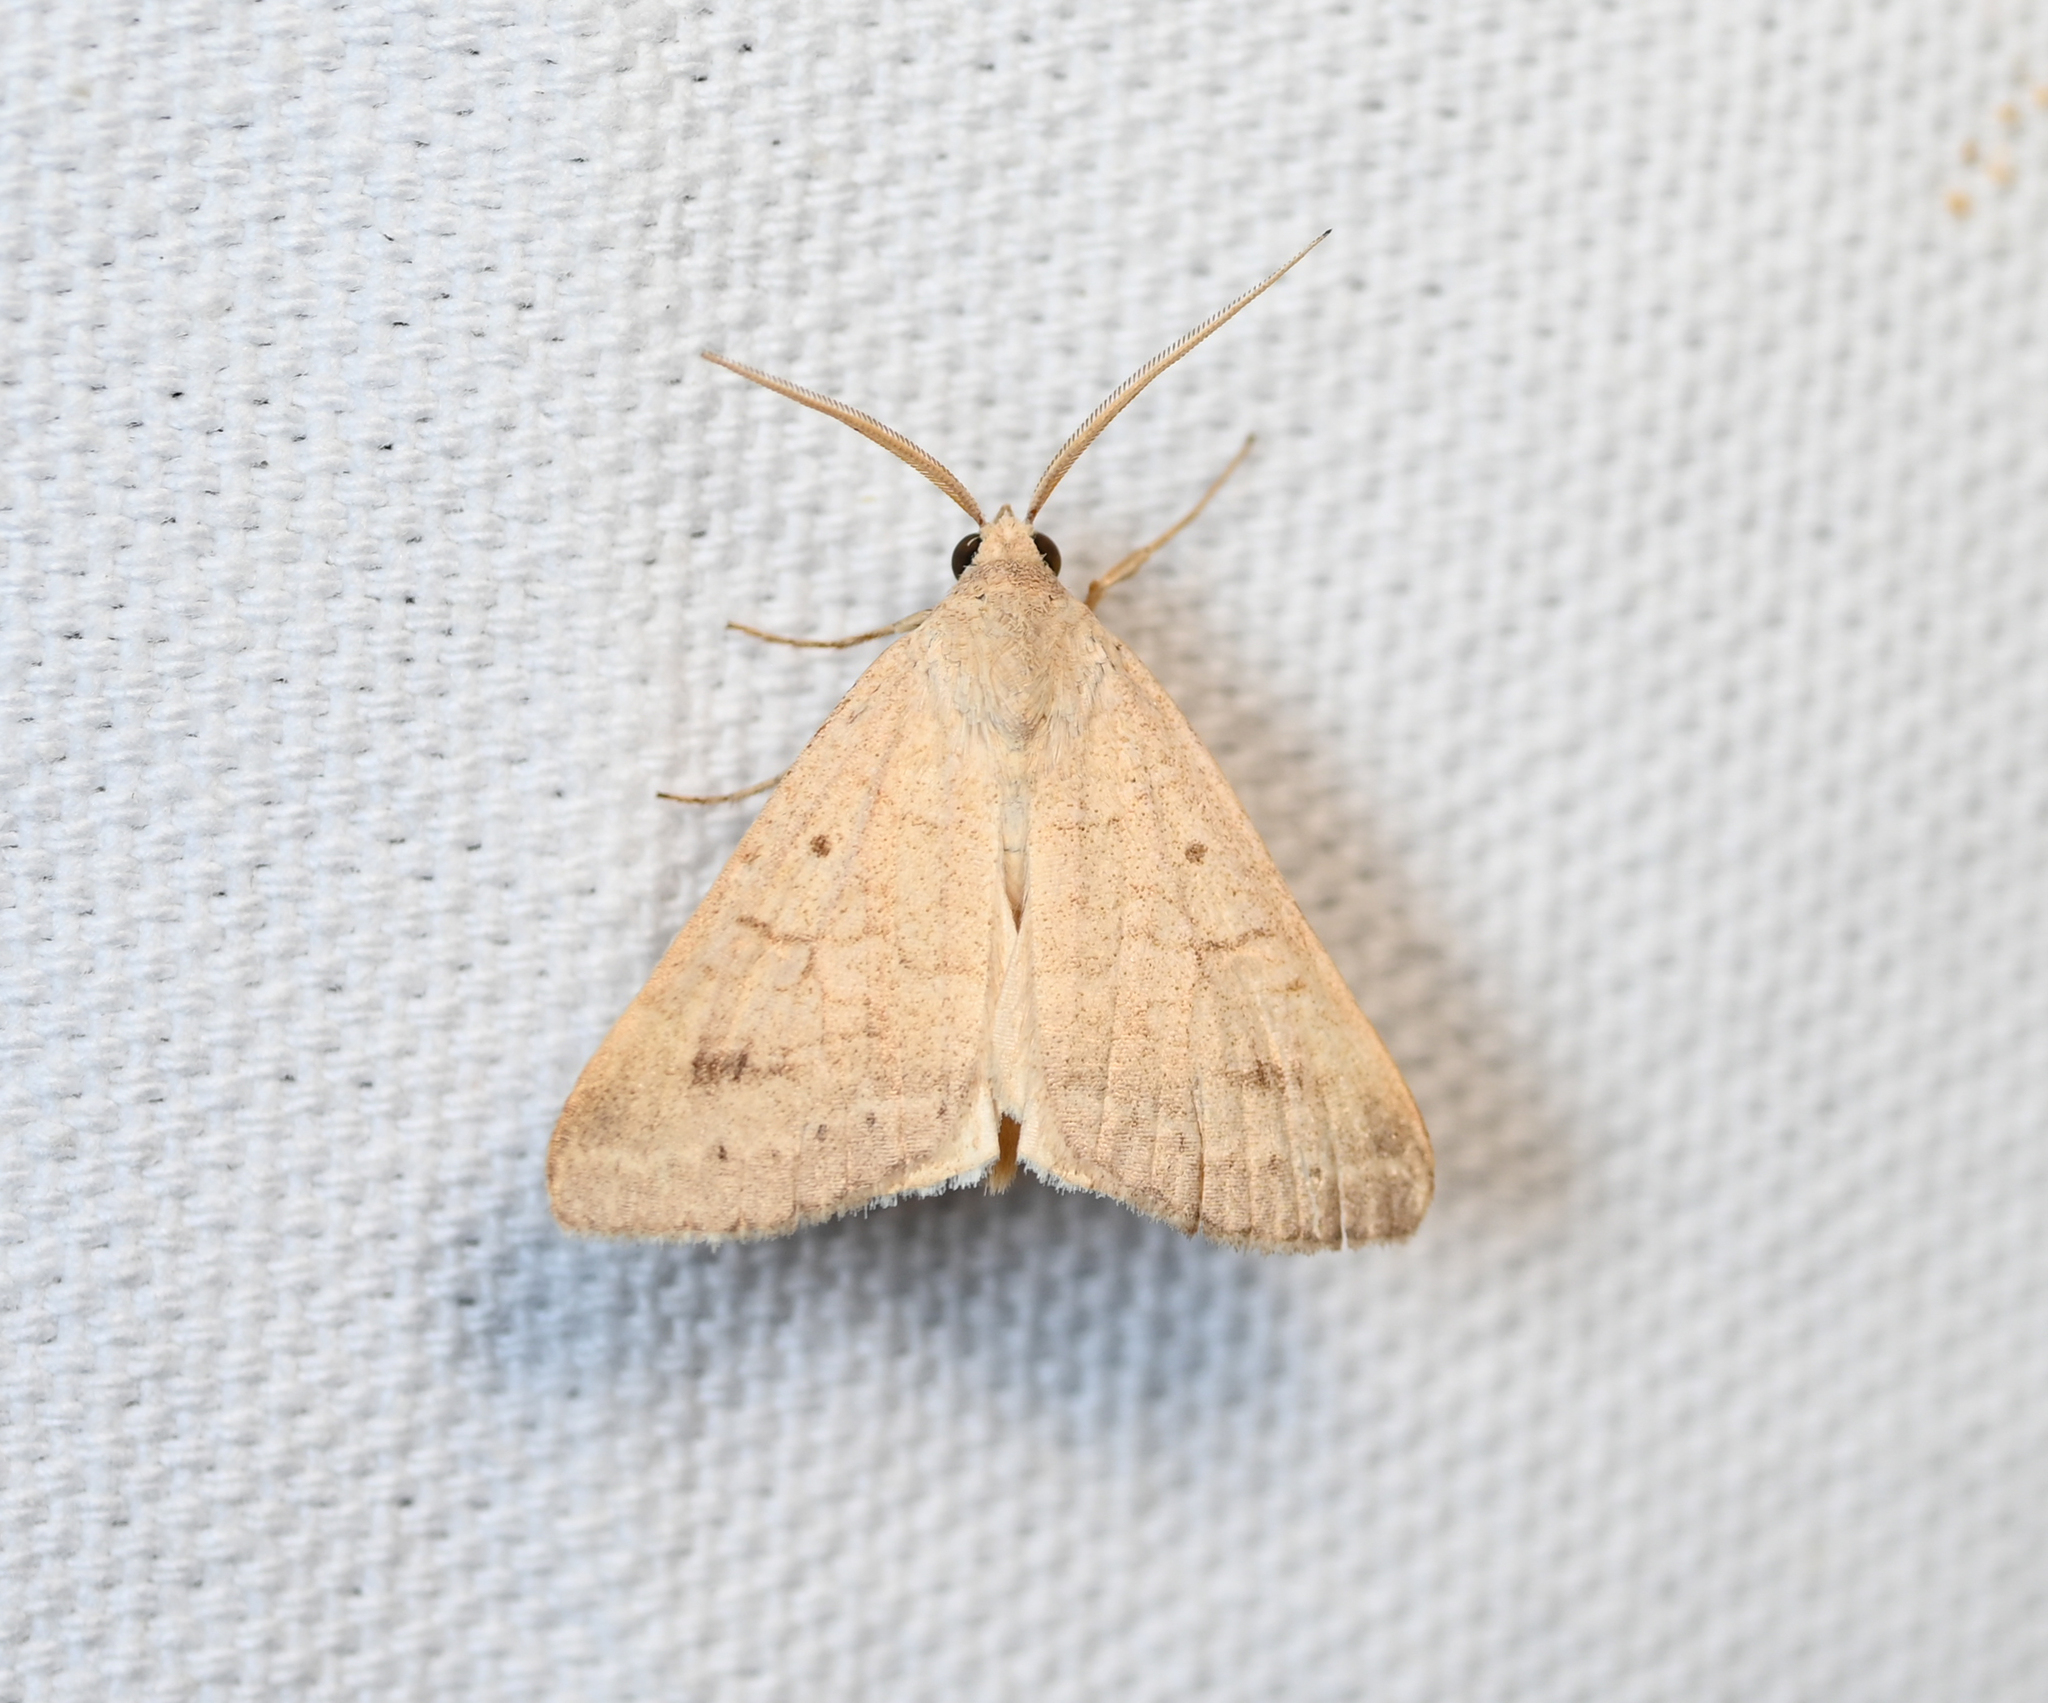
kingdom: Animalia
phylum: Arthropoda
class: Insecta
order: Lepidoptera
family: Erebidae
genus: Caenurgia
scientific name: Caenurgia chloropha
